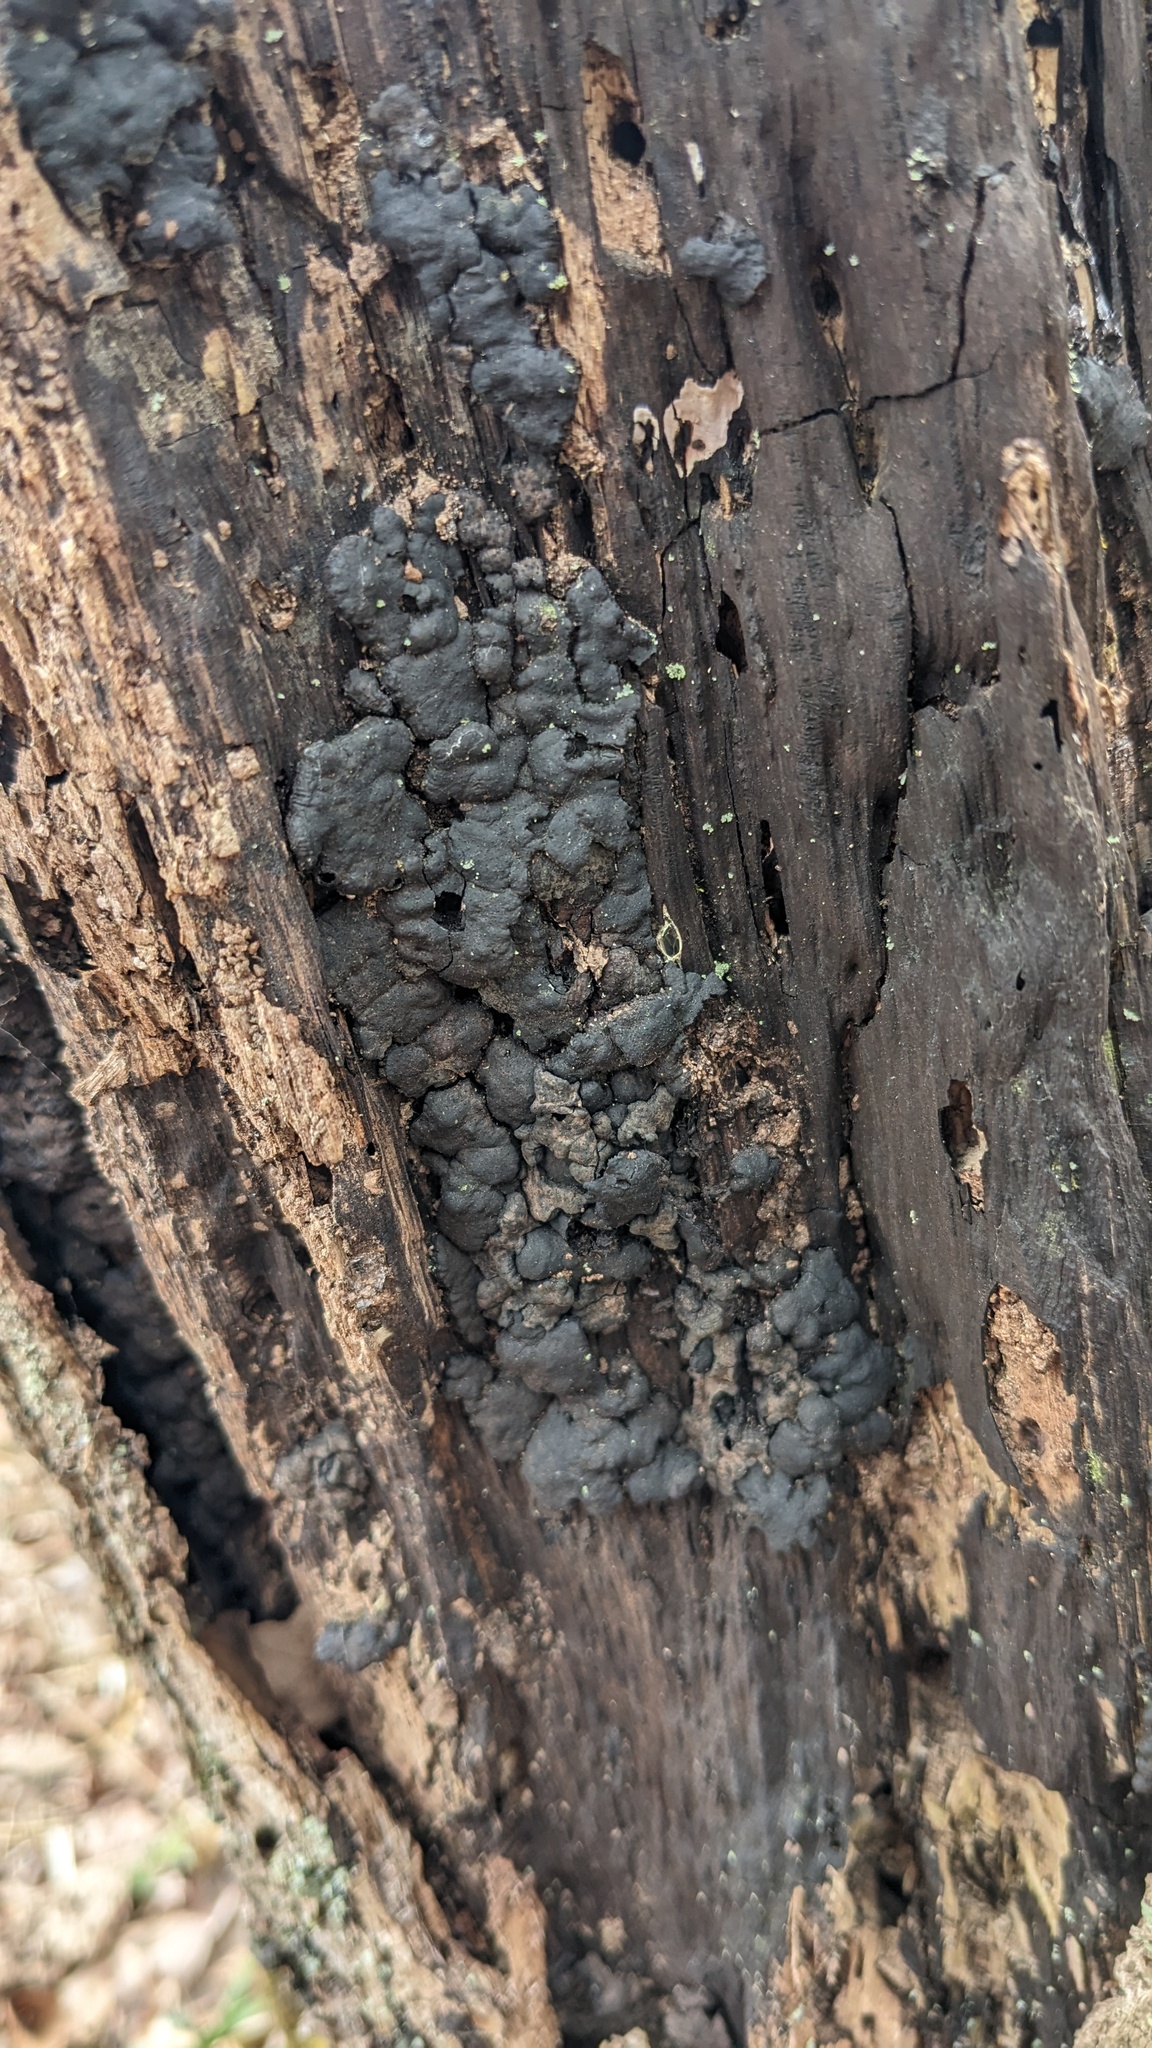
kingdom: Fungi
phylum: Ascomycota
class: Sordariomycetes
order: Xylariales
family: Xylariaceae
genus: Kretzschmaria
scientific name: Kretzschmaria deusta
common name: Brittle cinder
